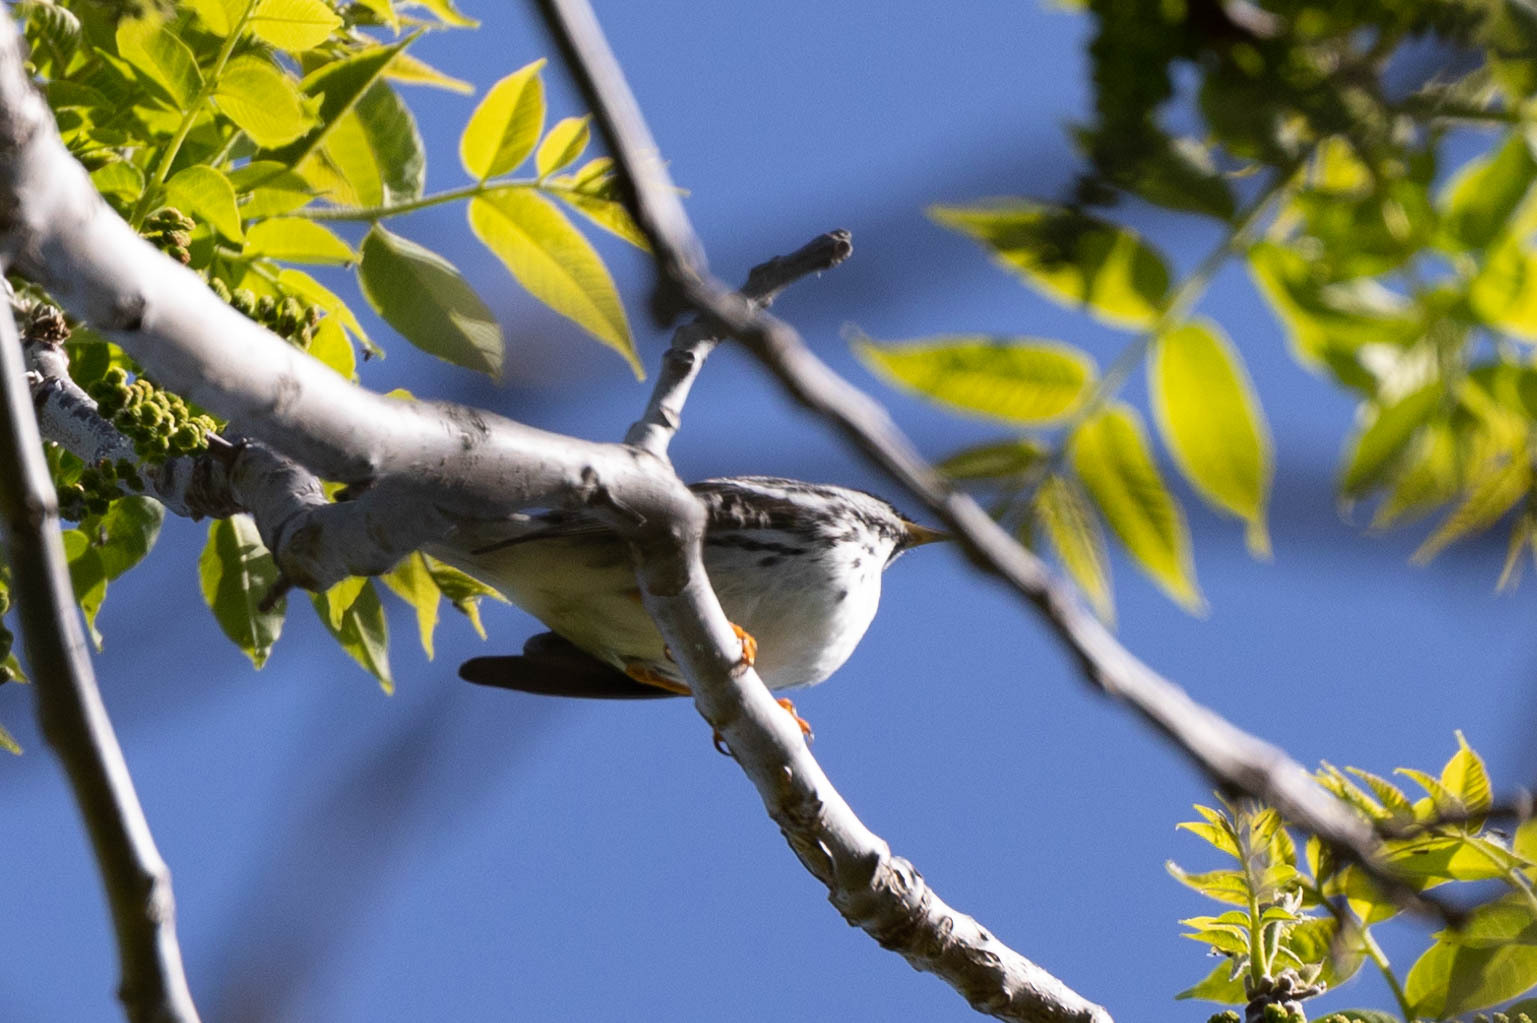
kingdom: Animalia
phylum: Chordata
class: Aves
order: Passeriformes
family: Parulidae
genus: Setophaga
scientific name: Setophaga striata
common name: Blackpoll warbler
